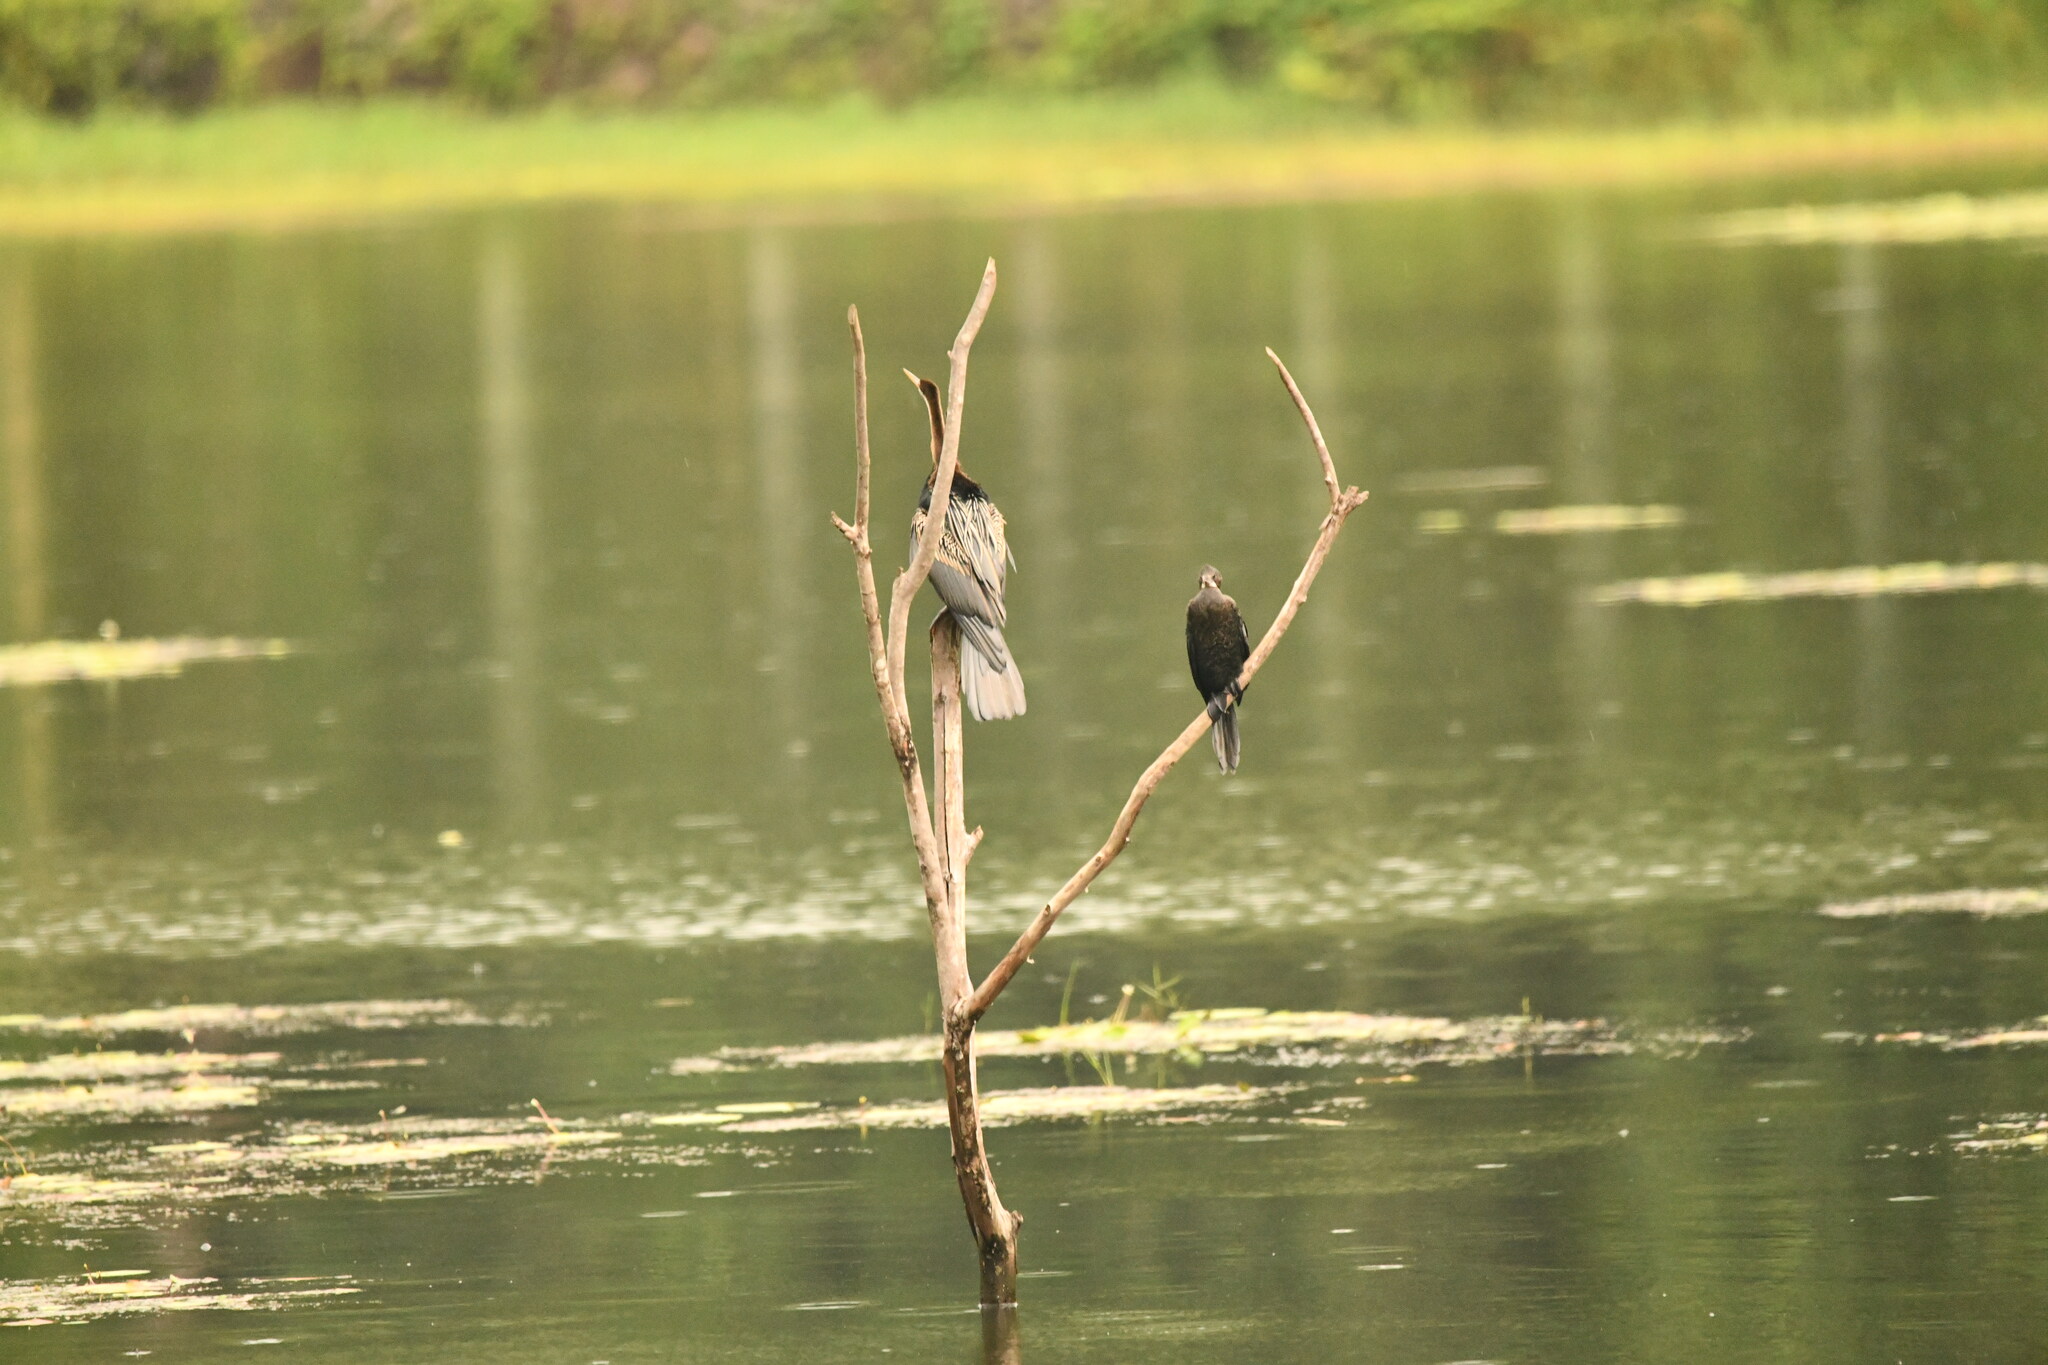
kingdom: Animalia
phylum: Chordata
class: Aves
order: Suliformes
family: Phalacrocoracidae
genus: Microcarbo
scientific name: Microcarbo niger
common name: Little cormorant
